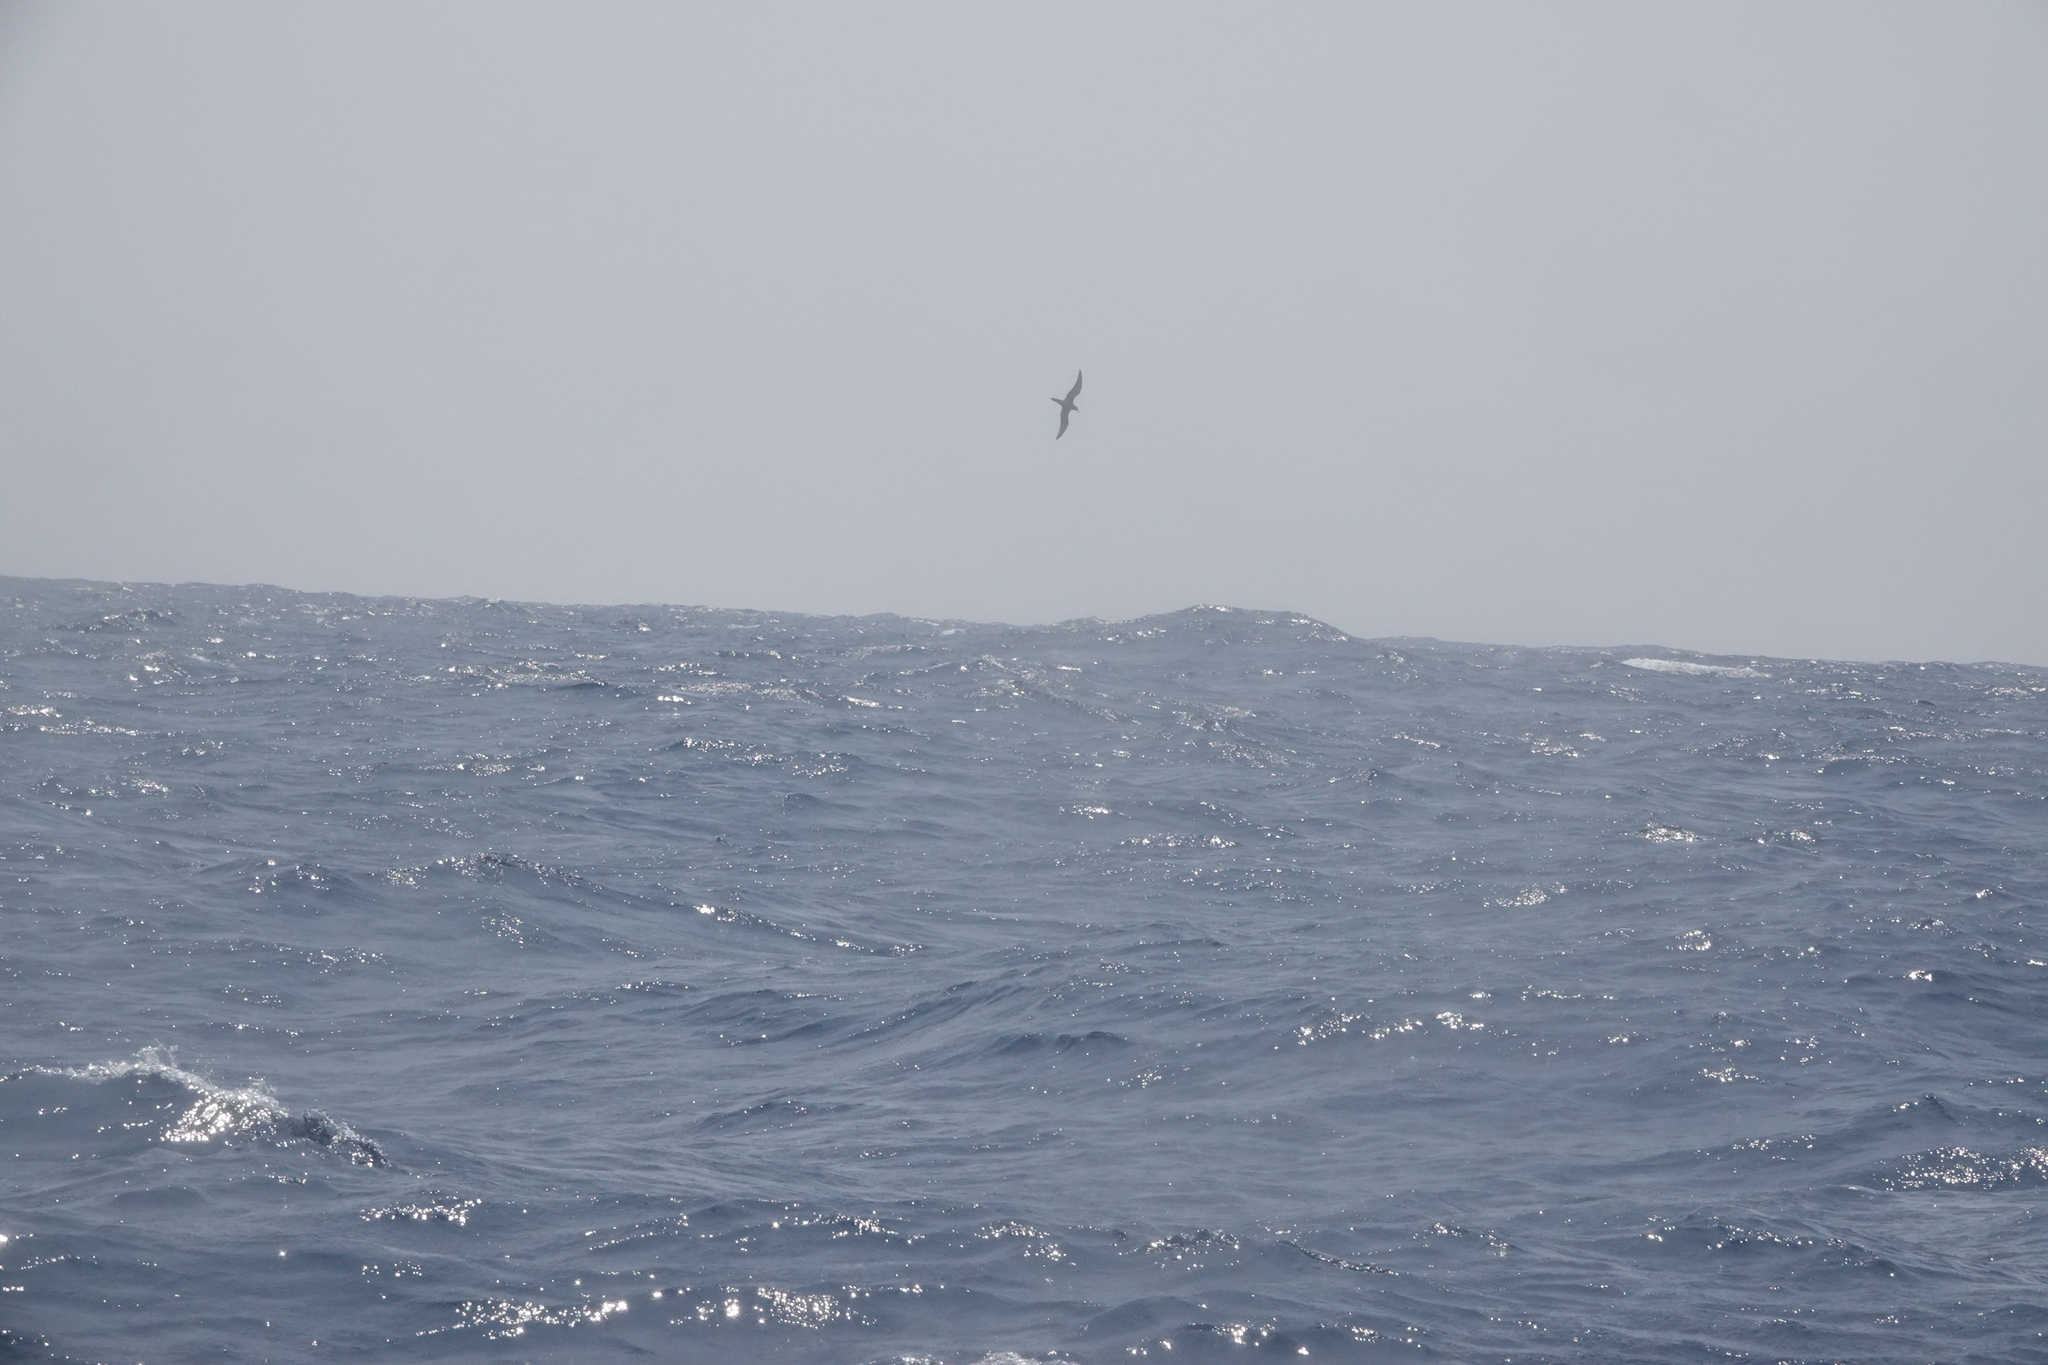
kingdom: Animalia
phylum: Chordata
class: Aves
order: Suliformes
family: Sulidae
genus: Sula
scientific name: Sula leucogaster
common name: Brown booby
